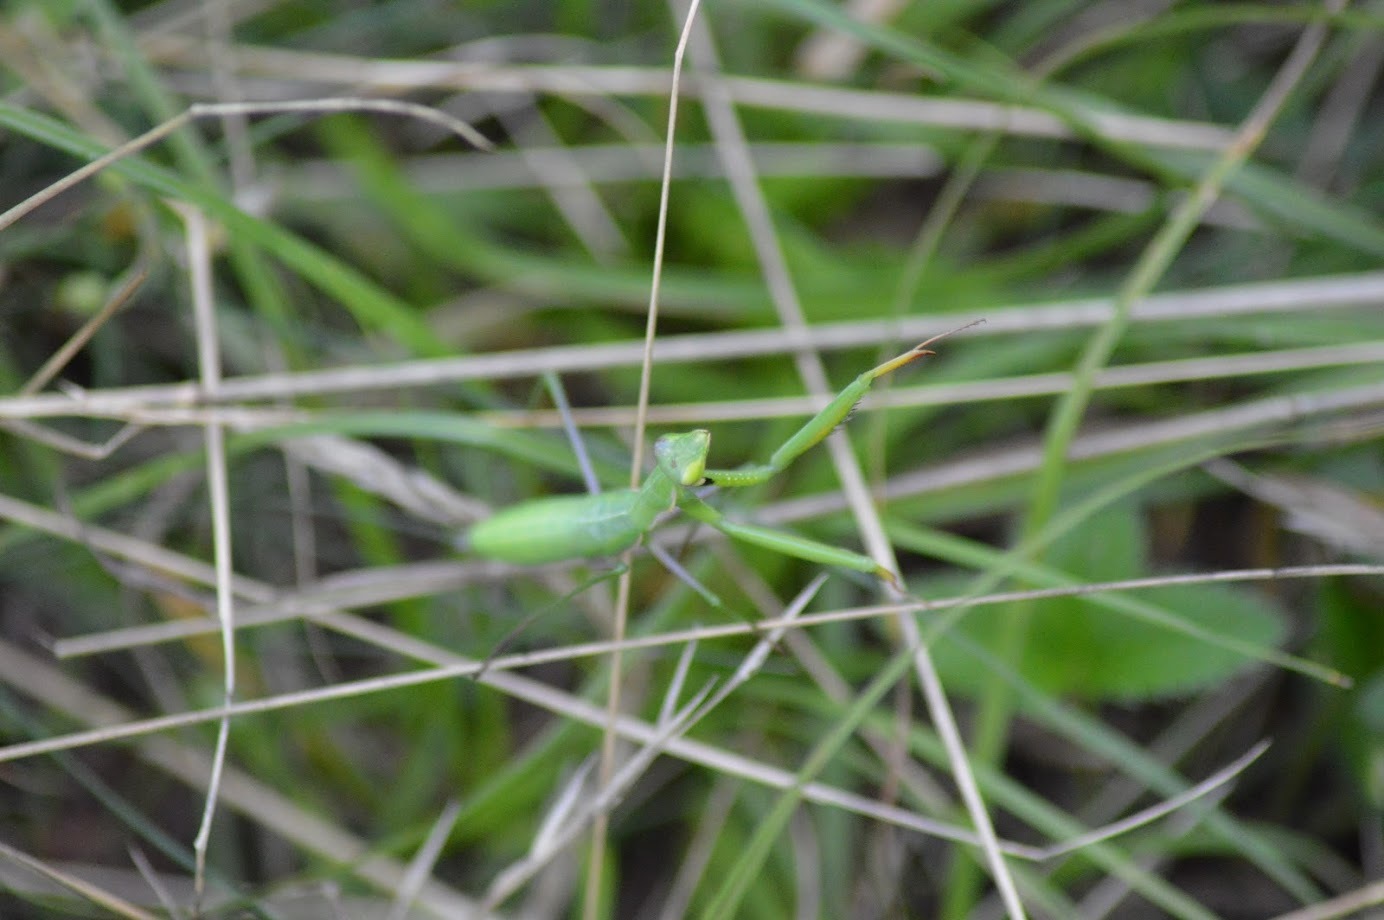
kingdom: Animalia
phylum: Arthropoda
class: Insecta
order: Mantodea
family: Mantidae
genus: Mantis
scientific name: Mantis religiosa
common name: Praying mantis
